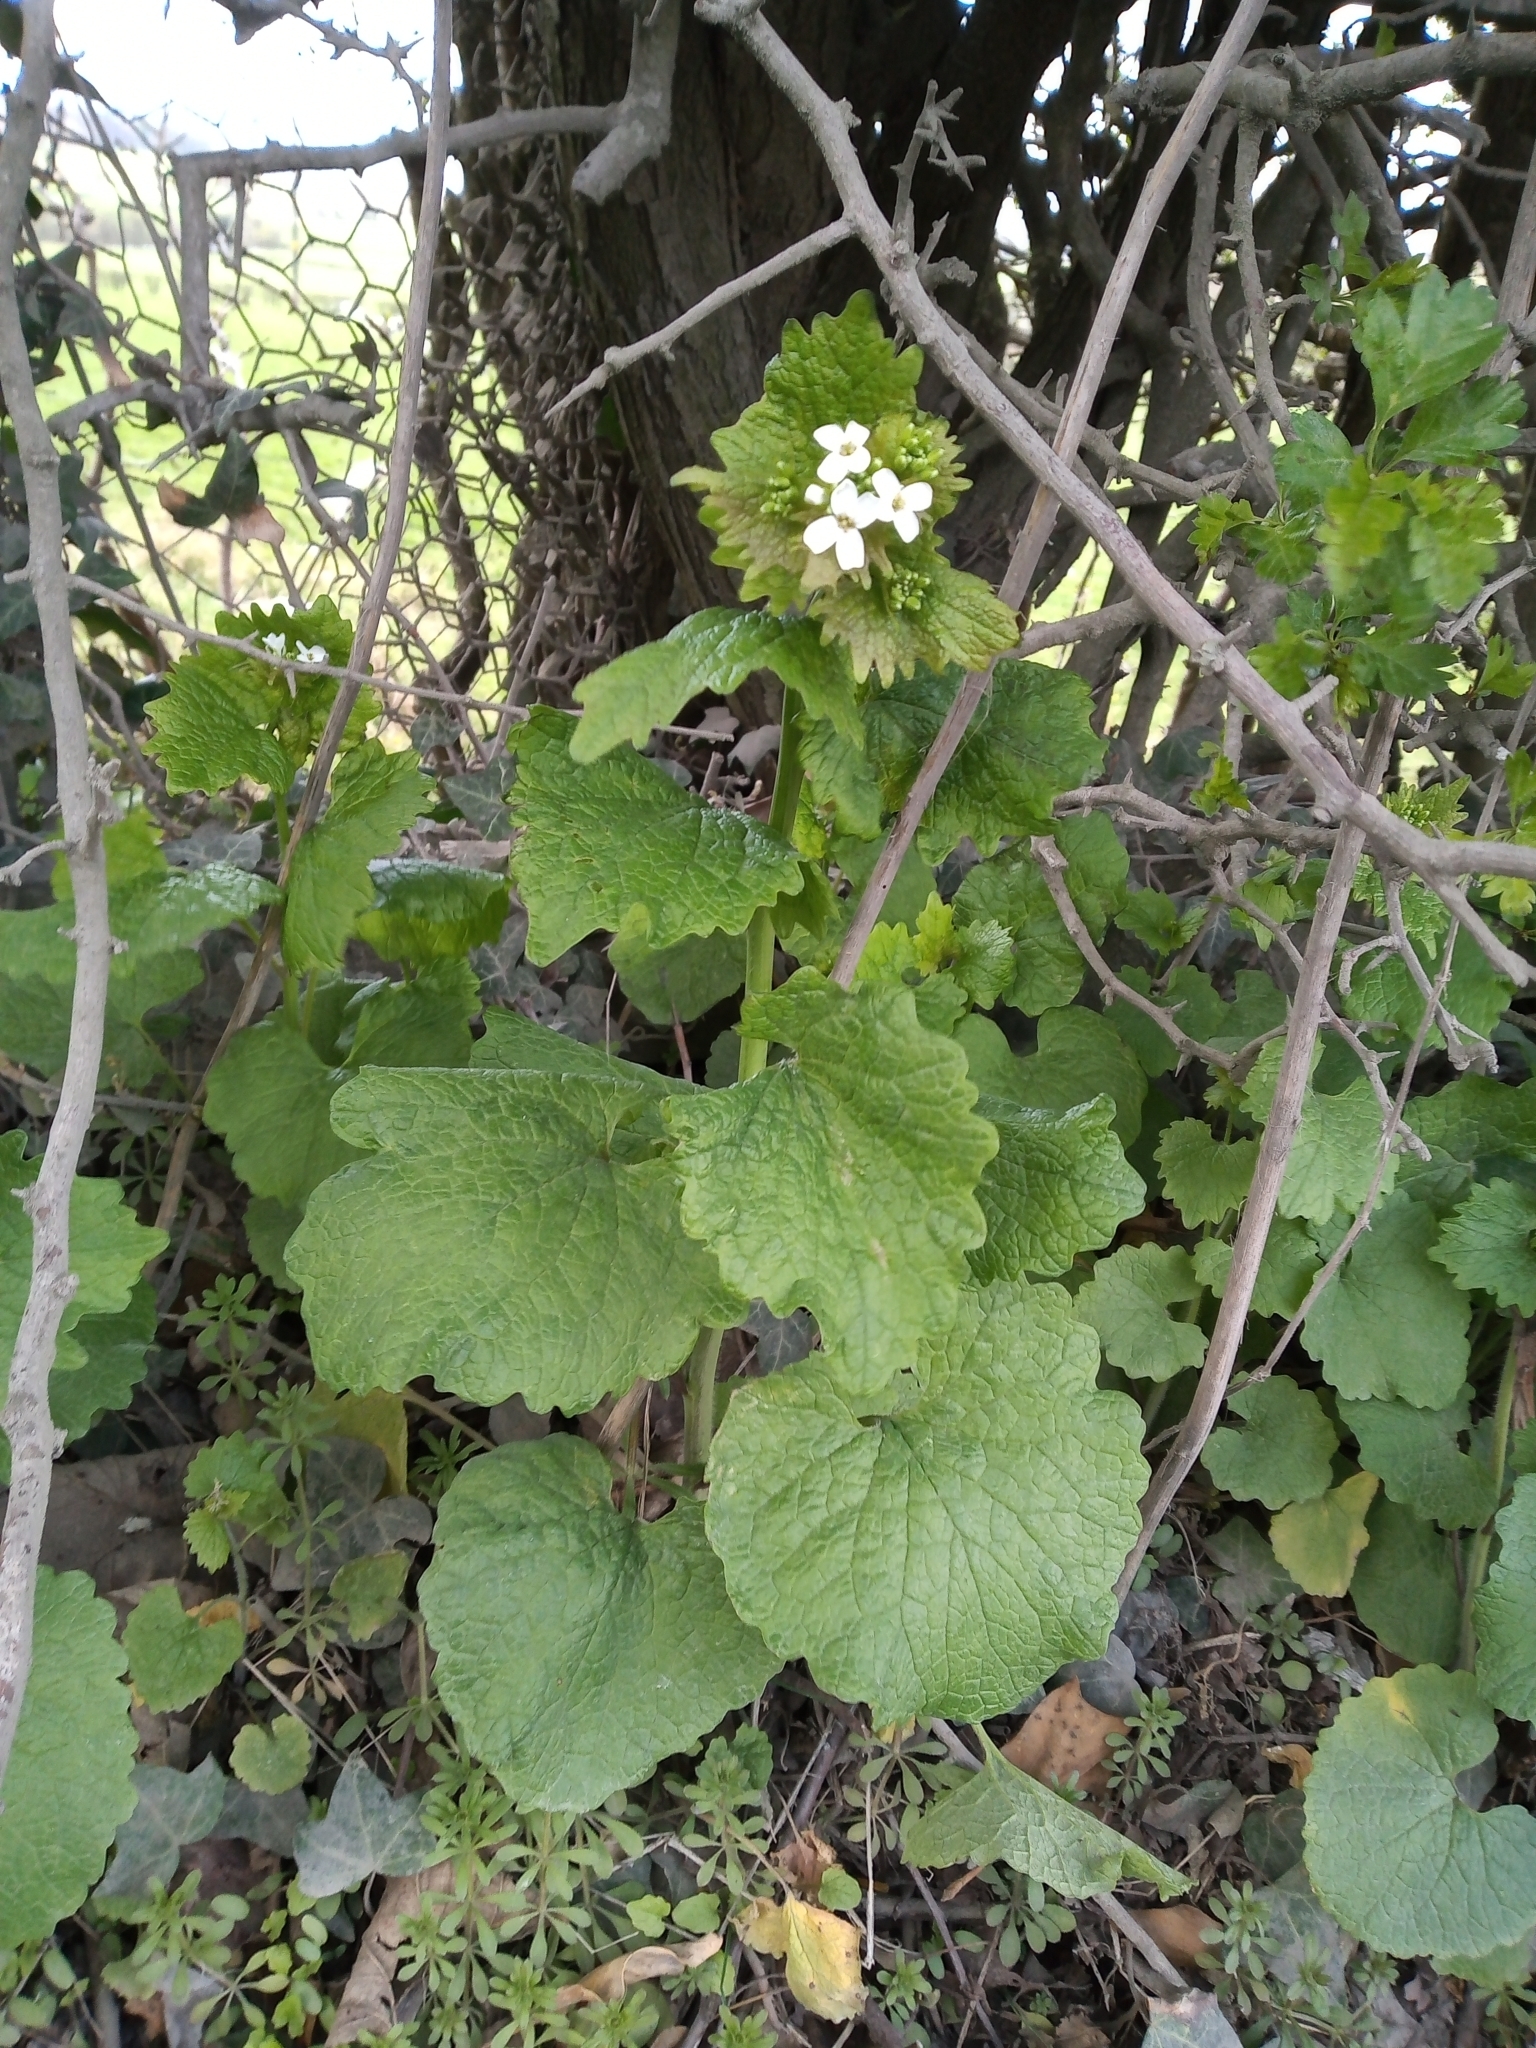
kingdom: Plantae
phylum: Tracheophyta
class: Magnoliopsida
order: Brassicales
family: Brassicaceae
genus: Alliaria
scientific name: Alliaria petiolata
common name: Garlic mustard
